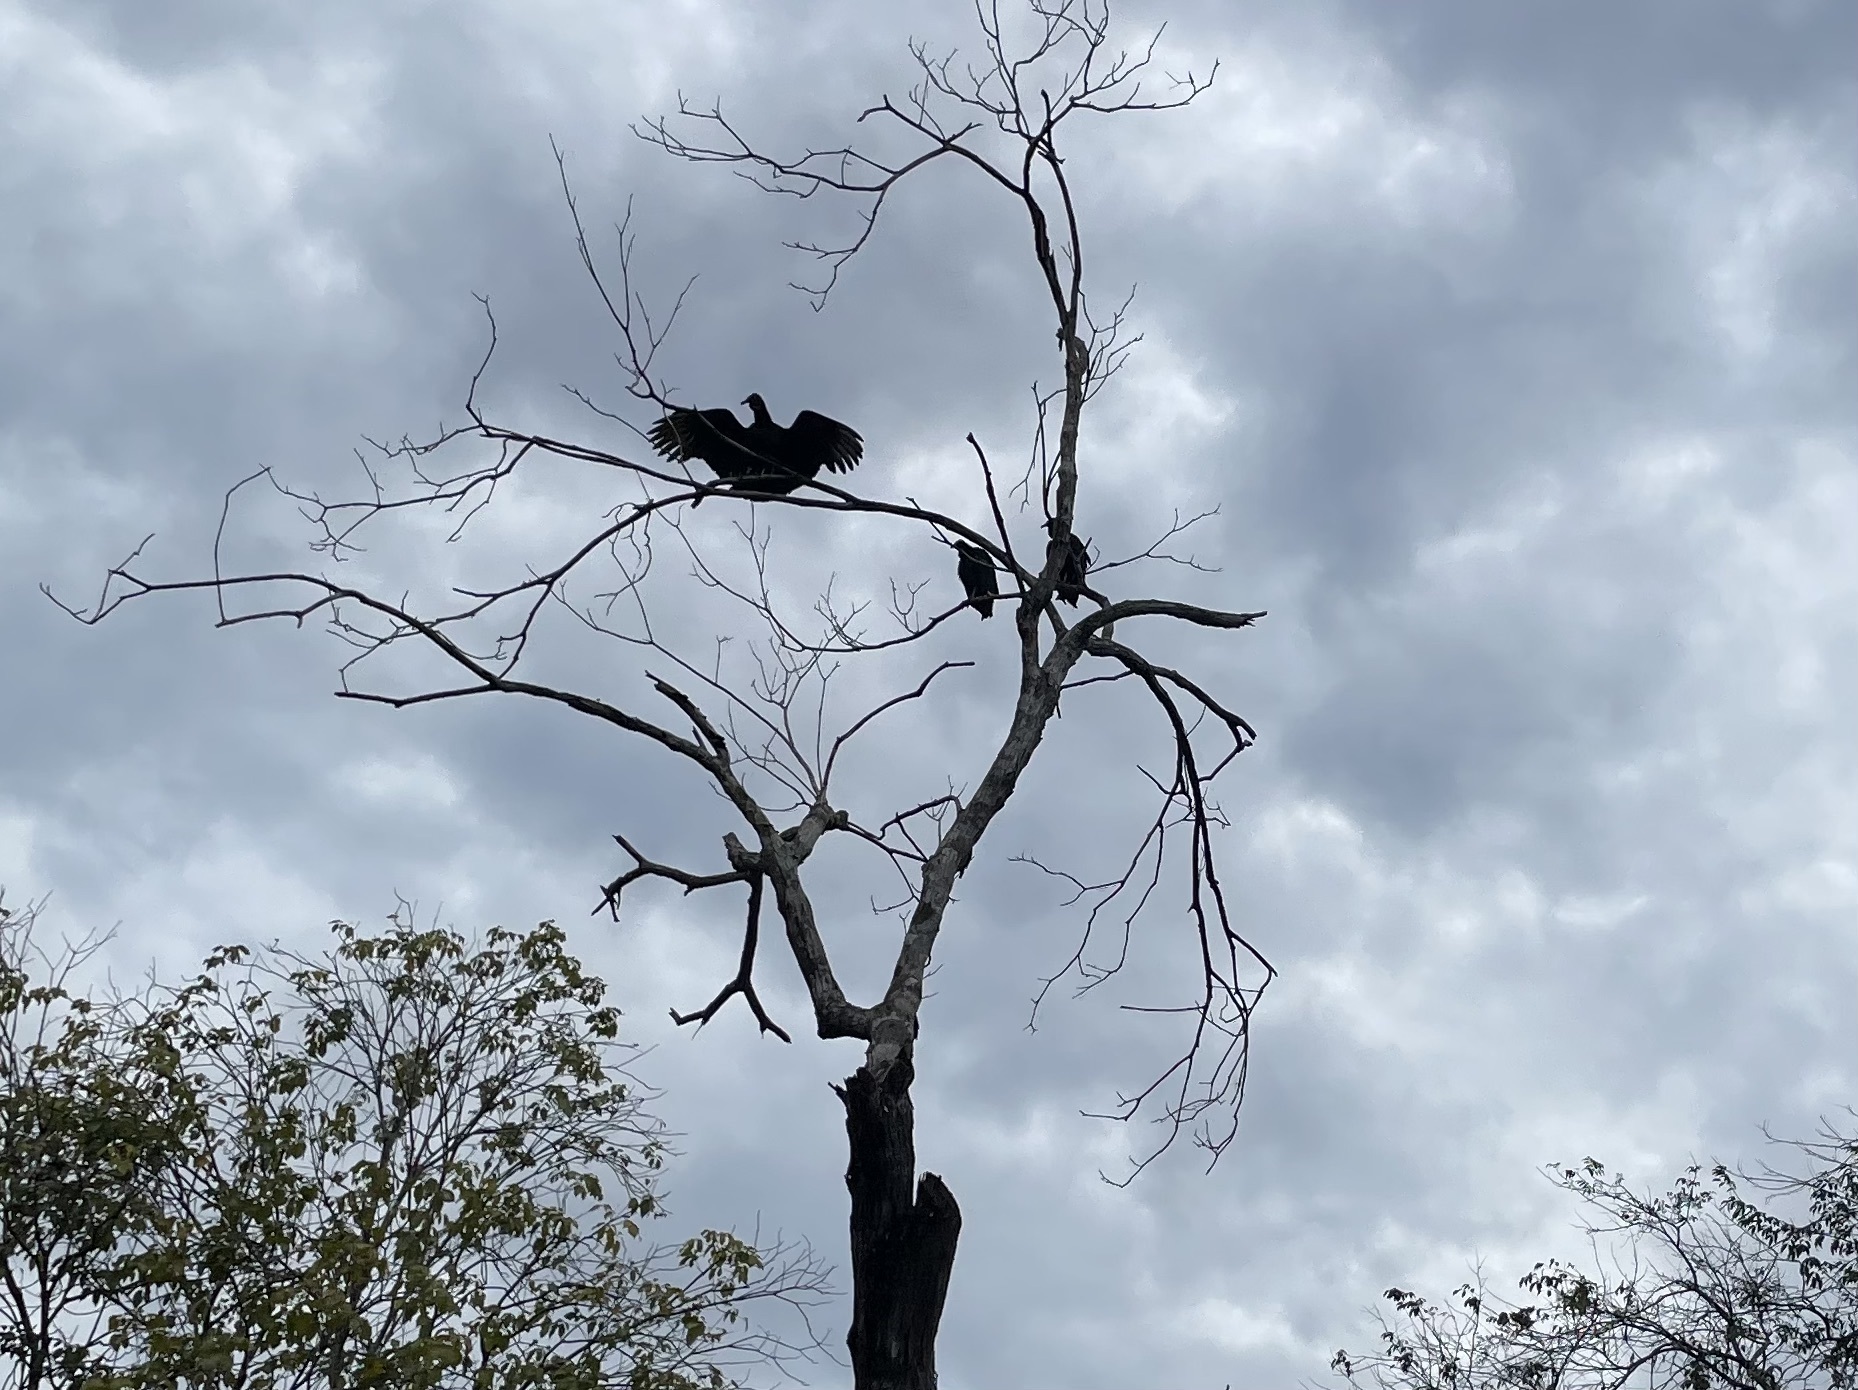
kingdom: Animalia
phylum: Chordata
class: Aves
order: Accipitriformes
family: Cathartidae
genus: Coragyps
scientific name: Coragyps atratus
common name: Black vulture
